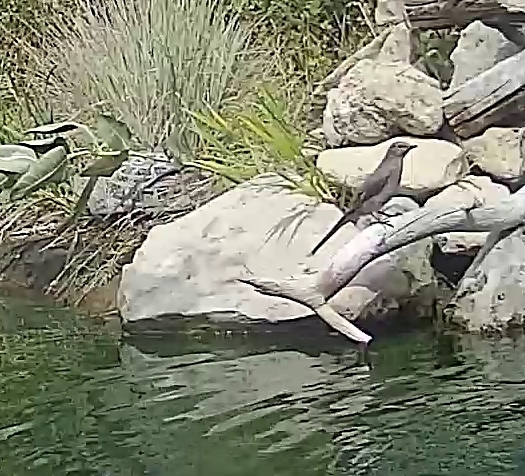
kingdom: Animalia
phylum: Chordata
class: Aves
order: Passeriformes
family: Turdidae
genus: Myadestes
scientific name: Myadestes townsendi
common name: Townsend's solitaire
